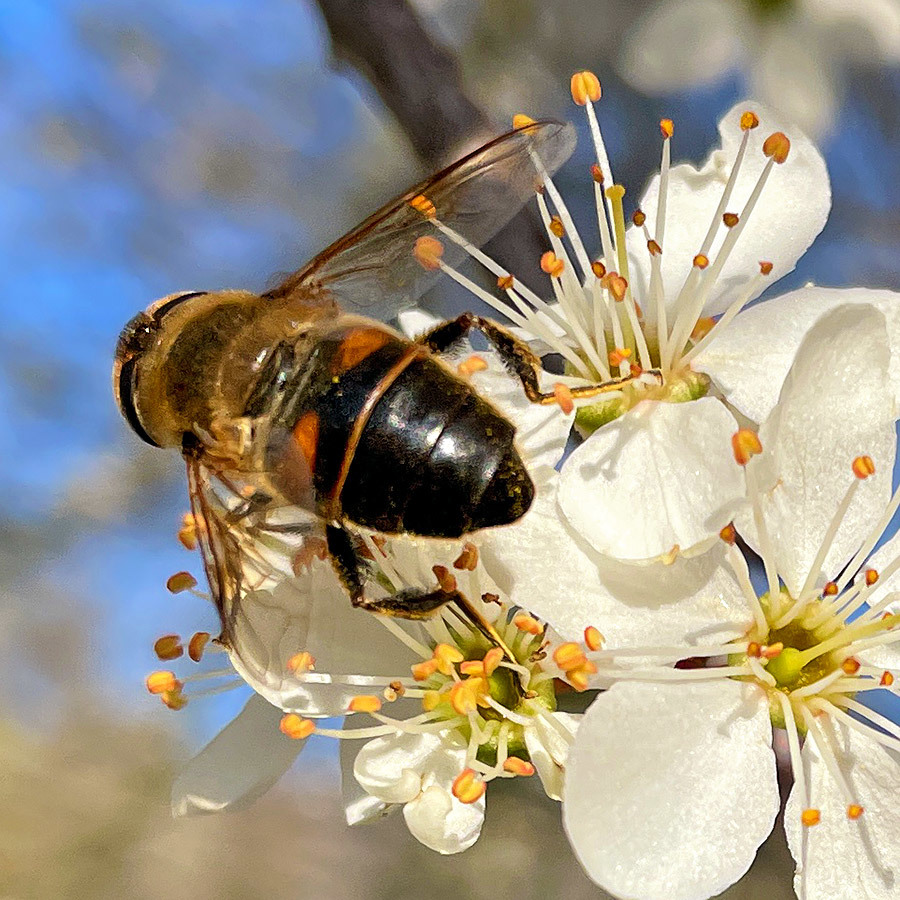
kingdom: Animalia
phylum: Arthropoda
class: Insecta
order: Diptera
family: Syrphidae
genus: Eristalis
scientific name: Eristalis tenax
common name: Drone fly
